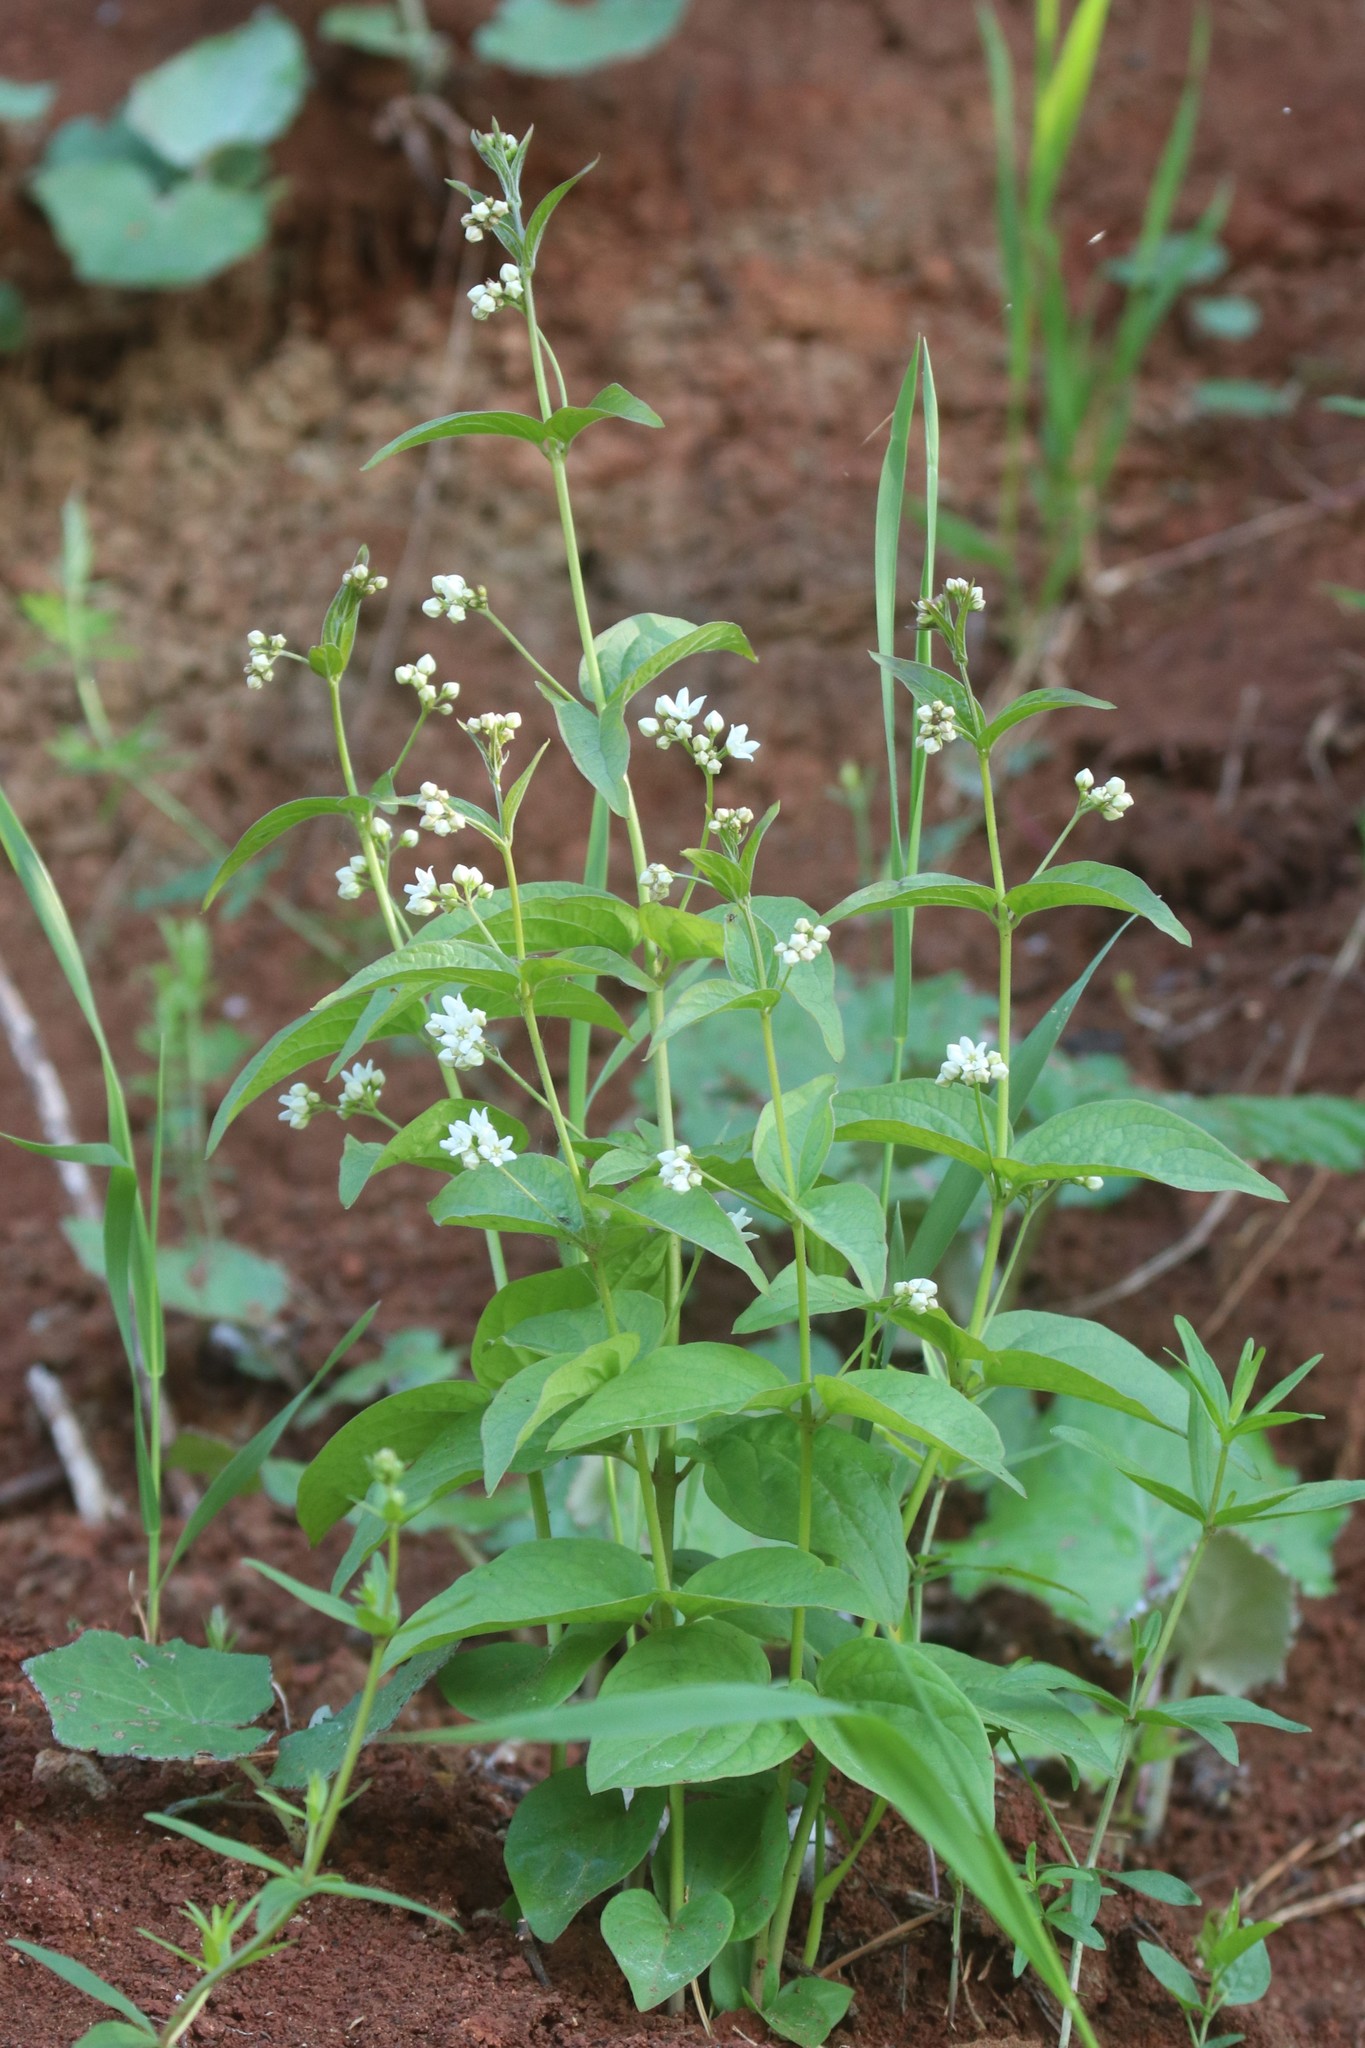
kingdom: Plantae
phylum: Tracheophyta
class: Magnoliopsida
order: Gentianales
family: Apocynaceae
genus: Vincetoxicum
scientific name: Vincetoxicum hirundinaria
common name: White swallowwort
